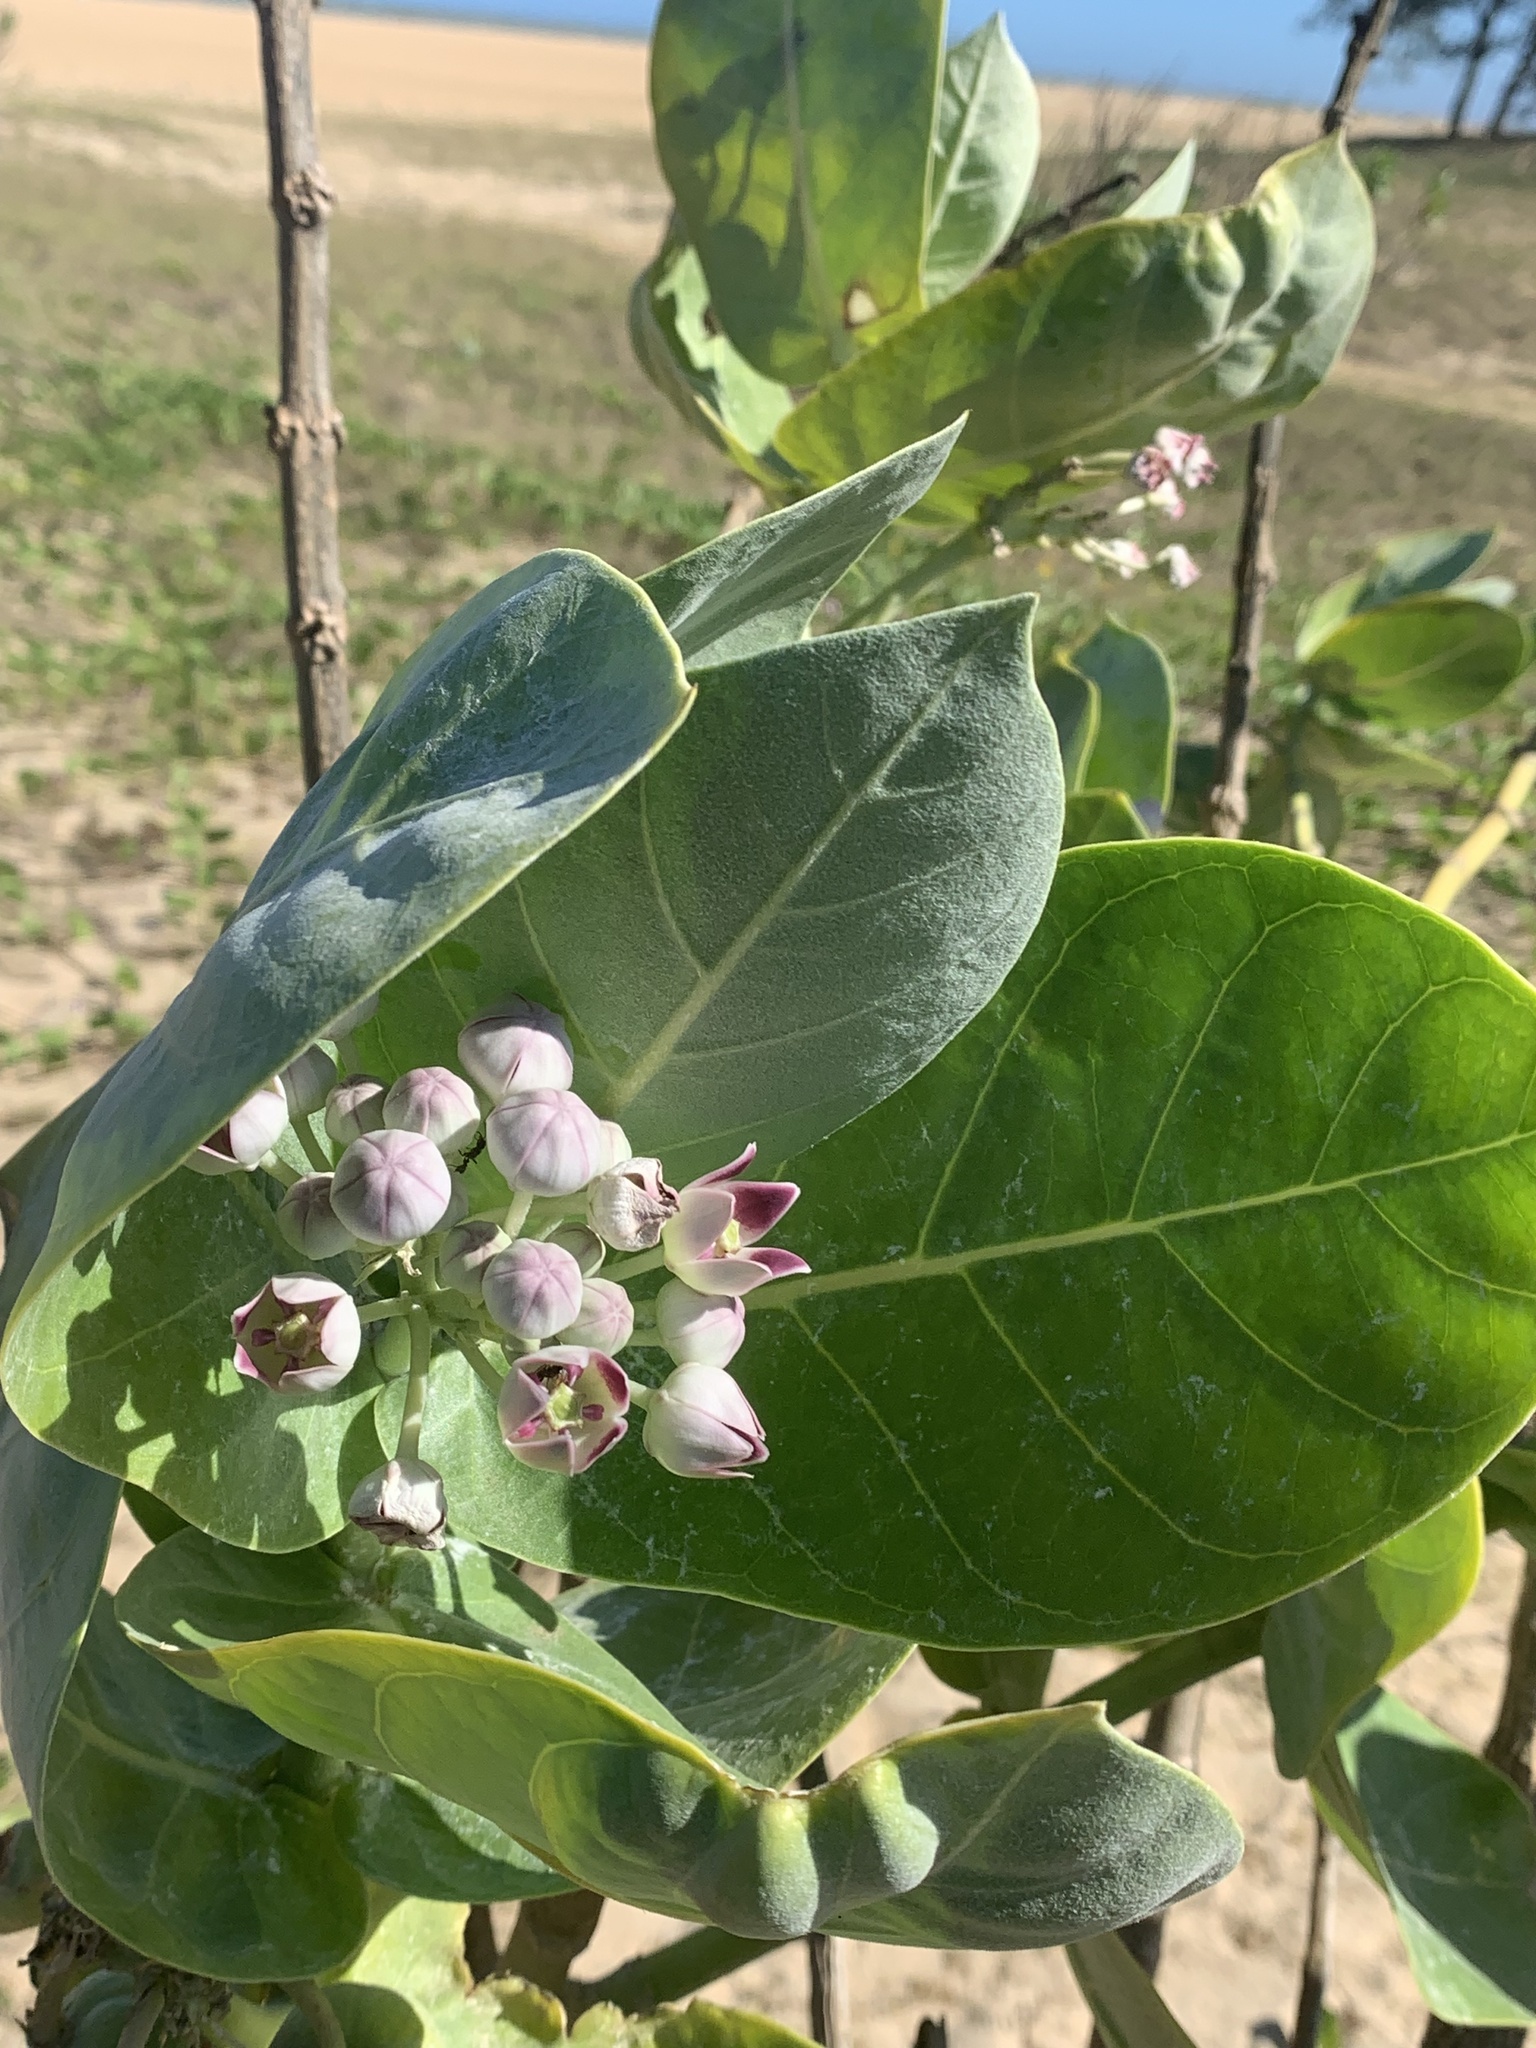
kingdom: Plantae
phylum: Tracheophyta
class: Magnoliopsida
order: Gentianales
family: Apocynaceae
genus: Calotropis
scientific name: Calotropis procera
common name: Roostertree
